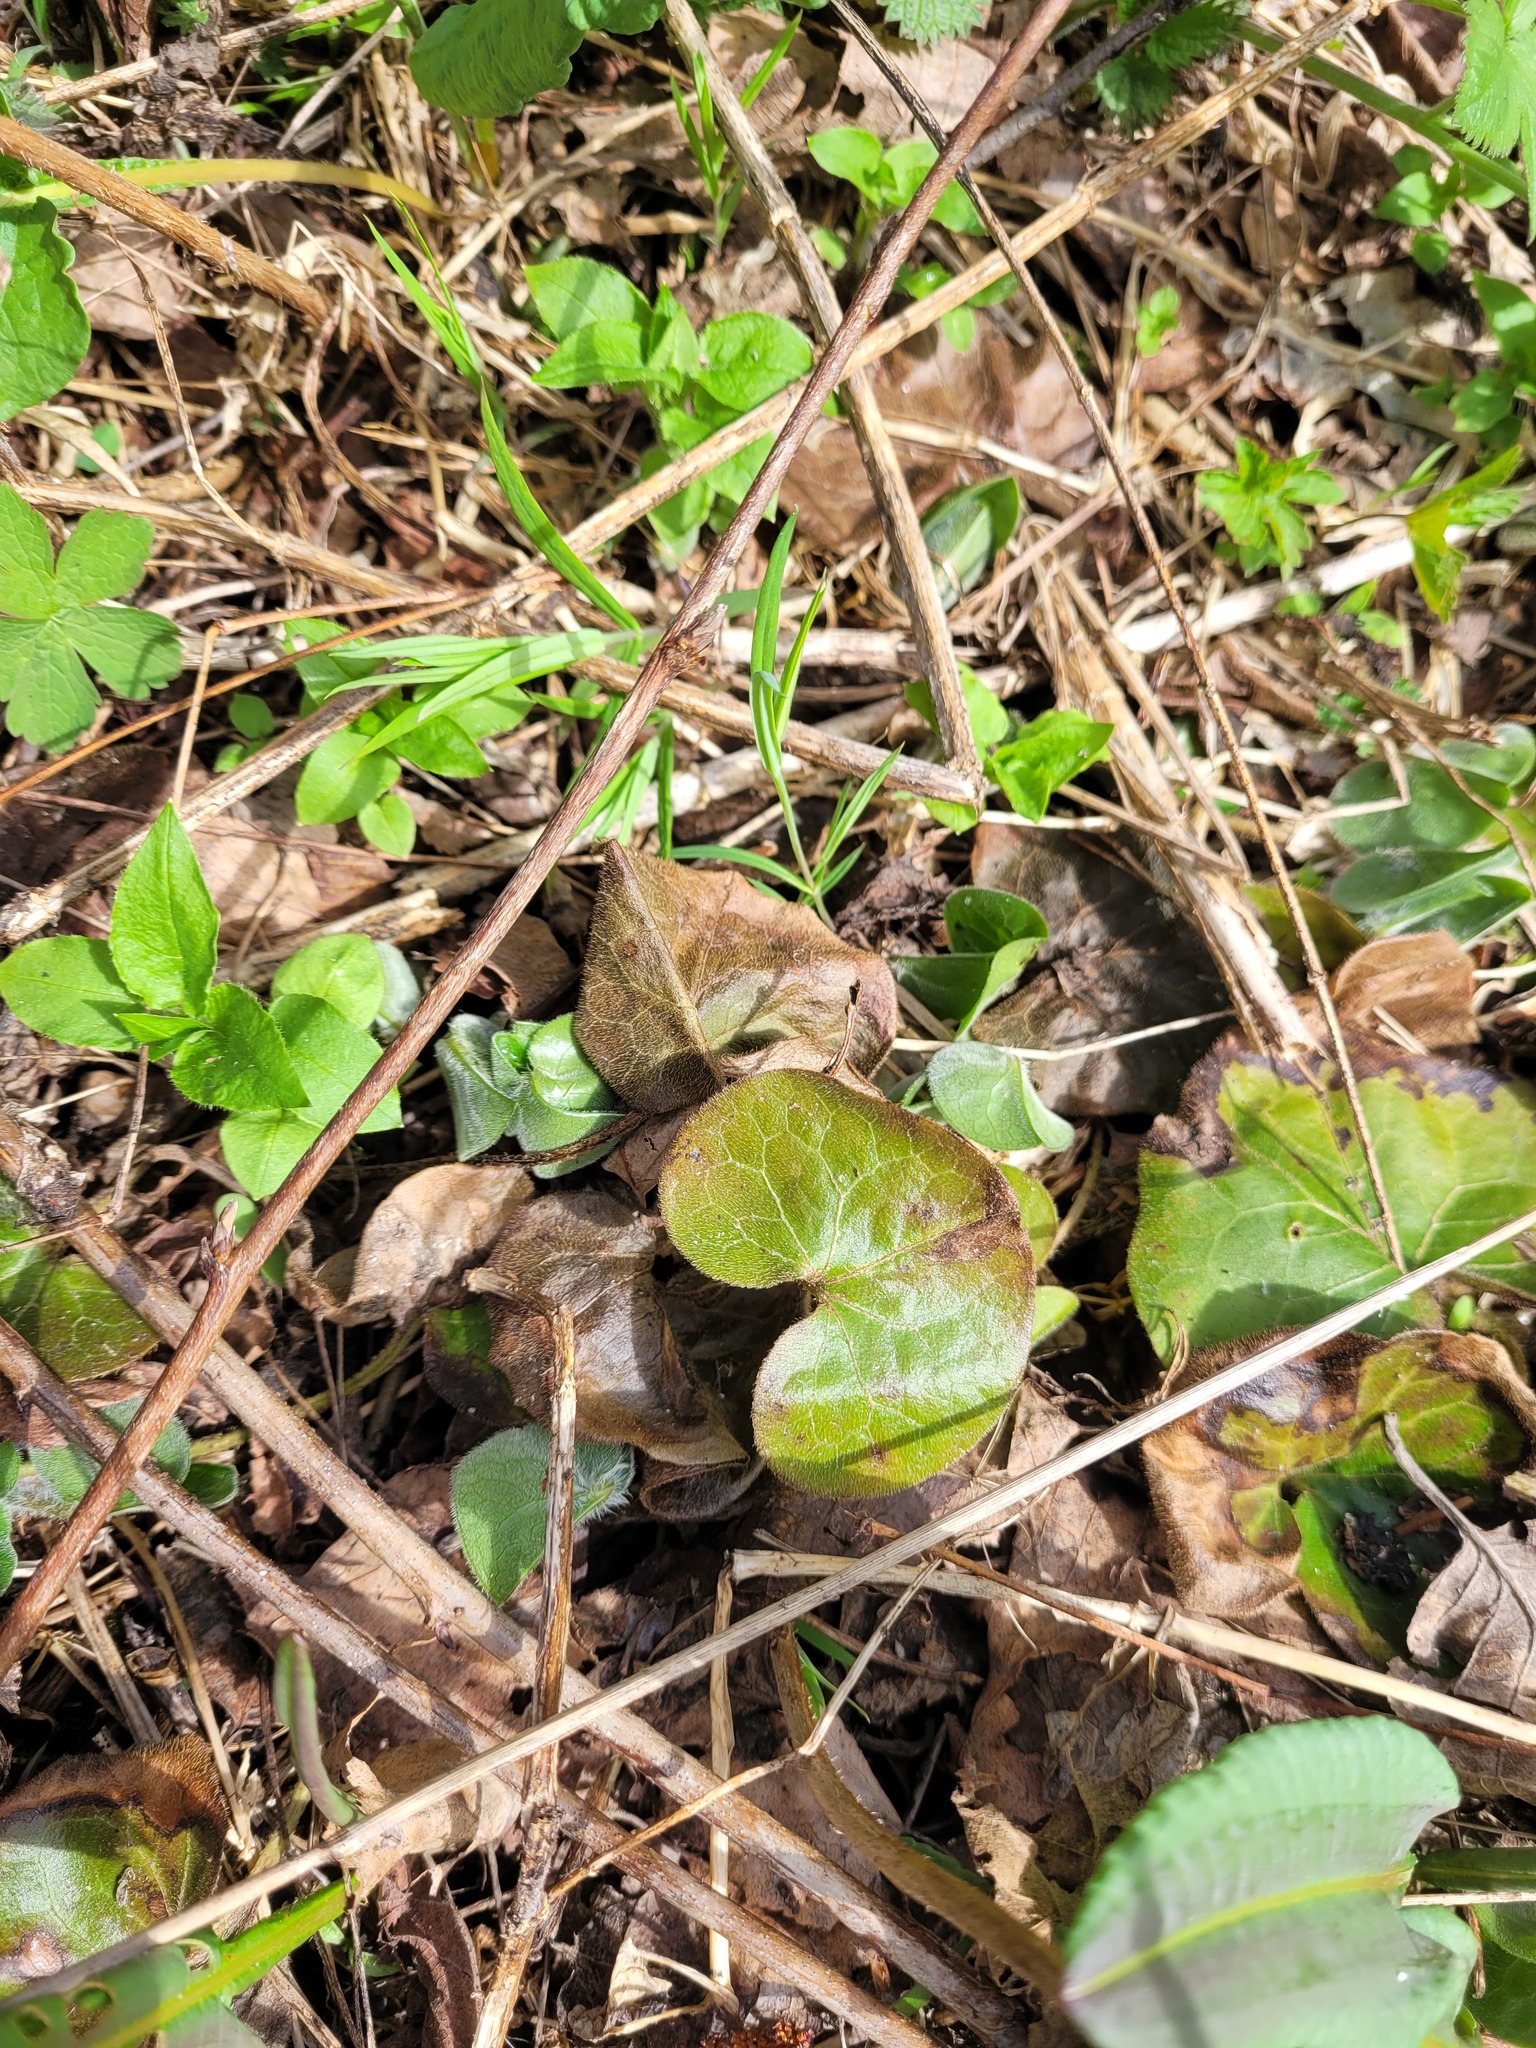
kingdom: Plantae
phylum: Tracheophyta
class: Magnoliopsida
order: Piperales
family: Aristolochiaceae
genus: Asarum
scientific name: Asarum europaeum
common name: Asarabacca
